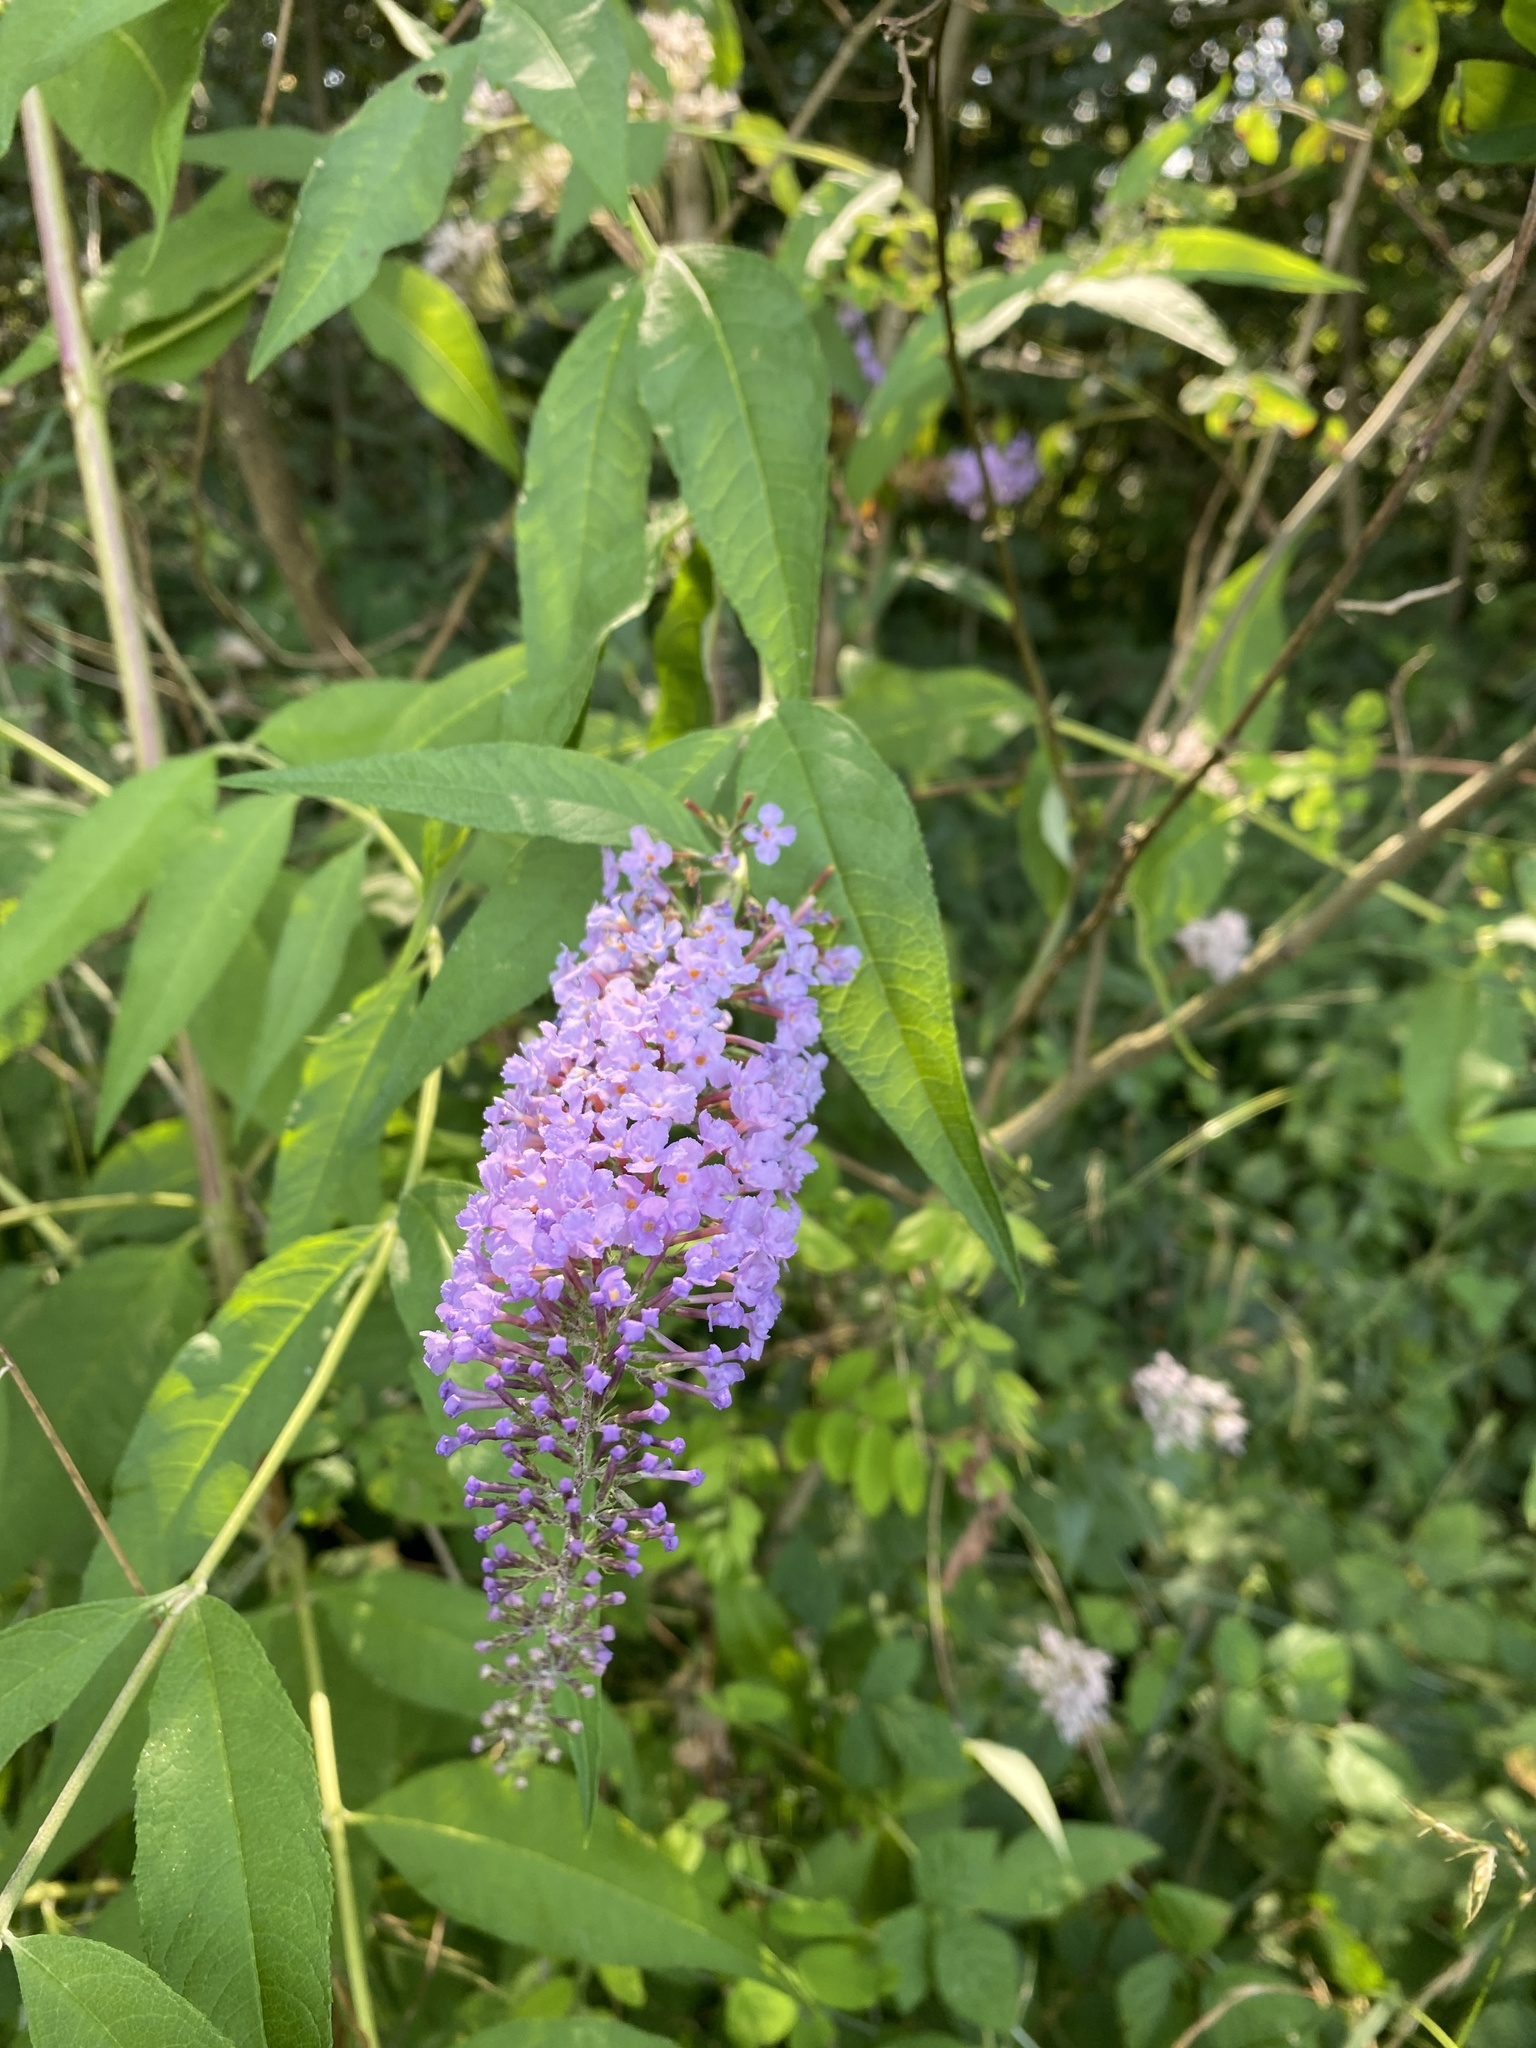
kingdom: Plantae
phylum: Tracheophyta
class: Magnoliopsida
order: Lamiales
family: Scrophulariaceae
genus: Buddleja
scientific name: Buddleja davidii
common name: Butterfly-bush
